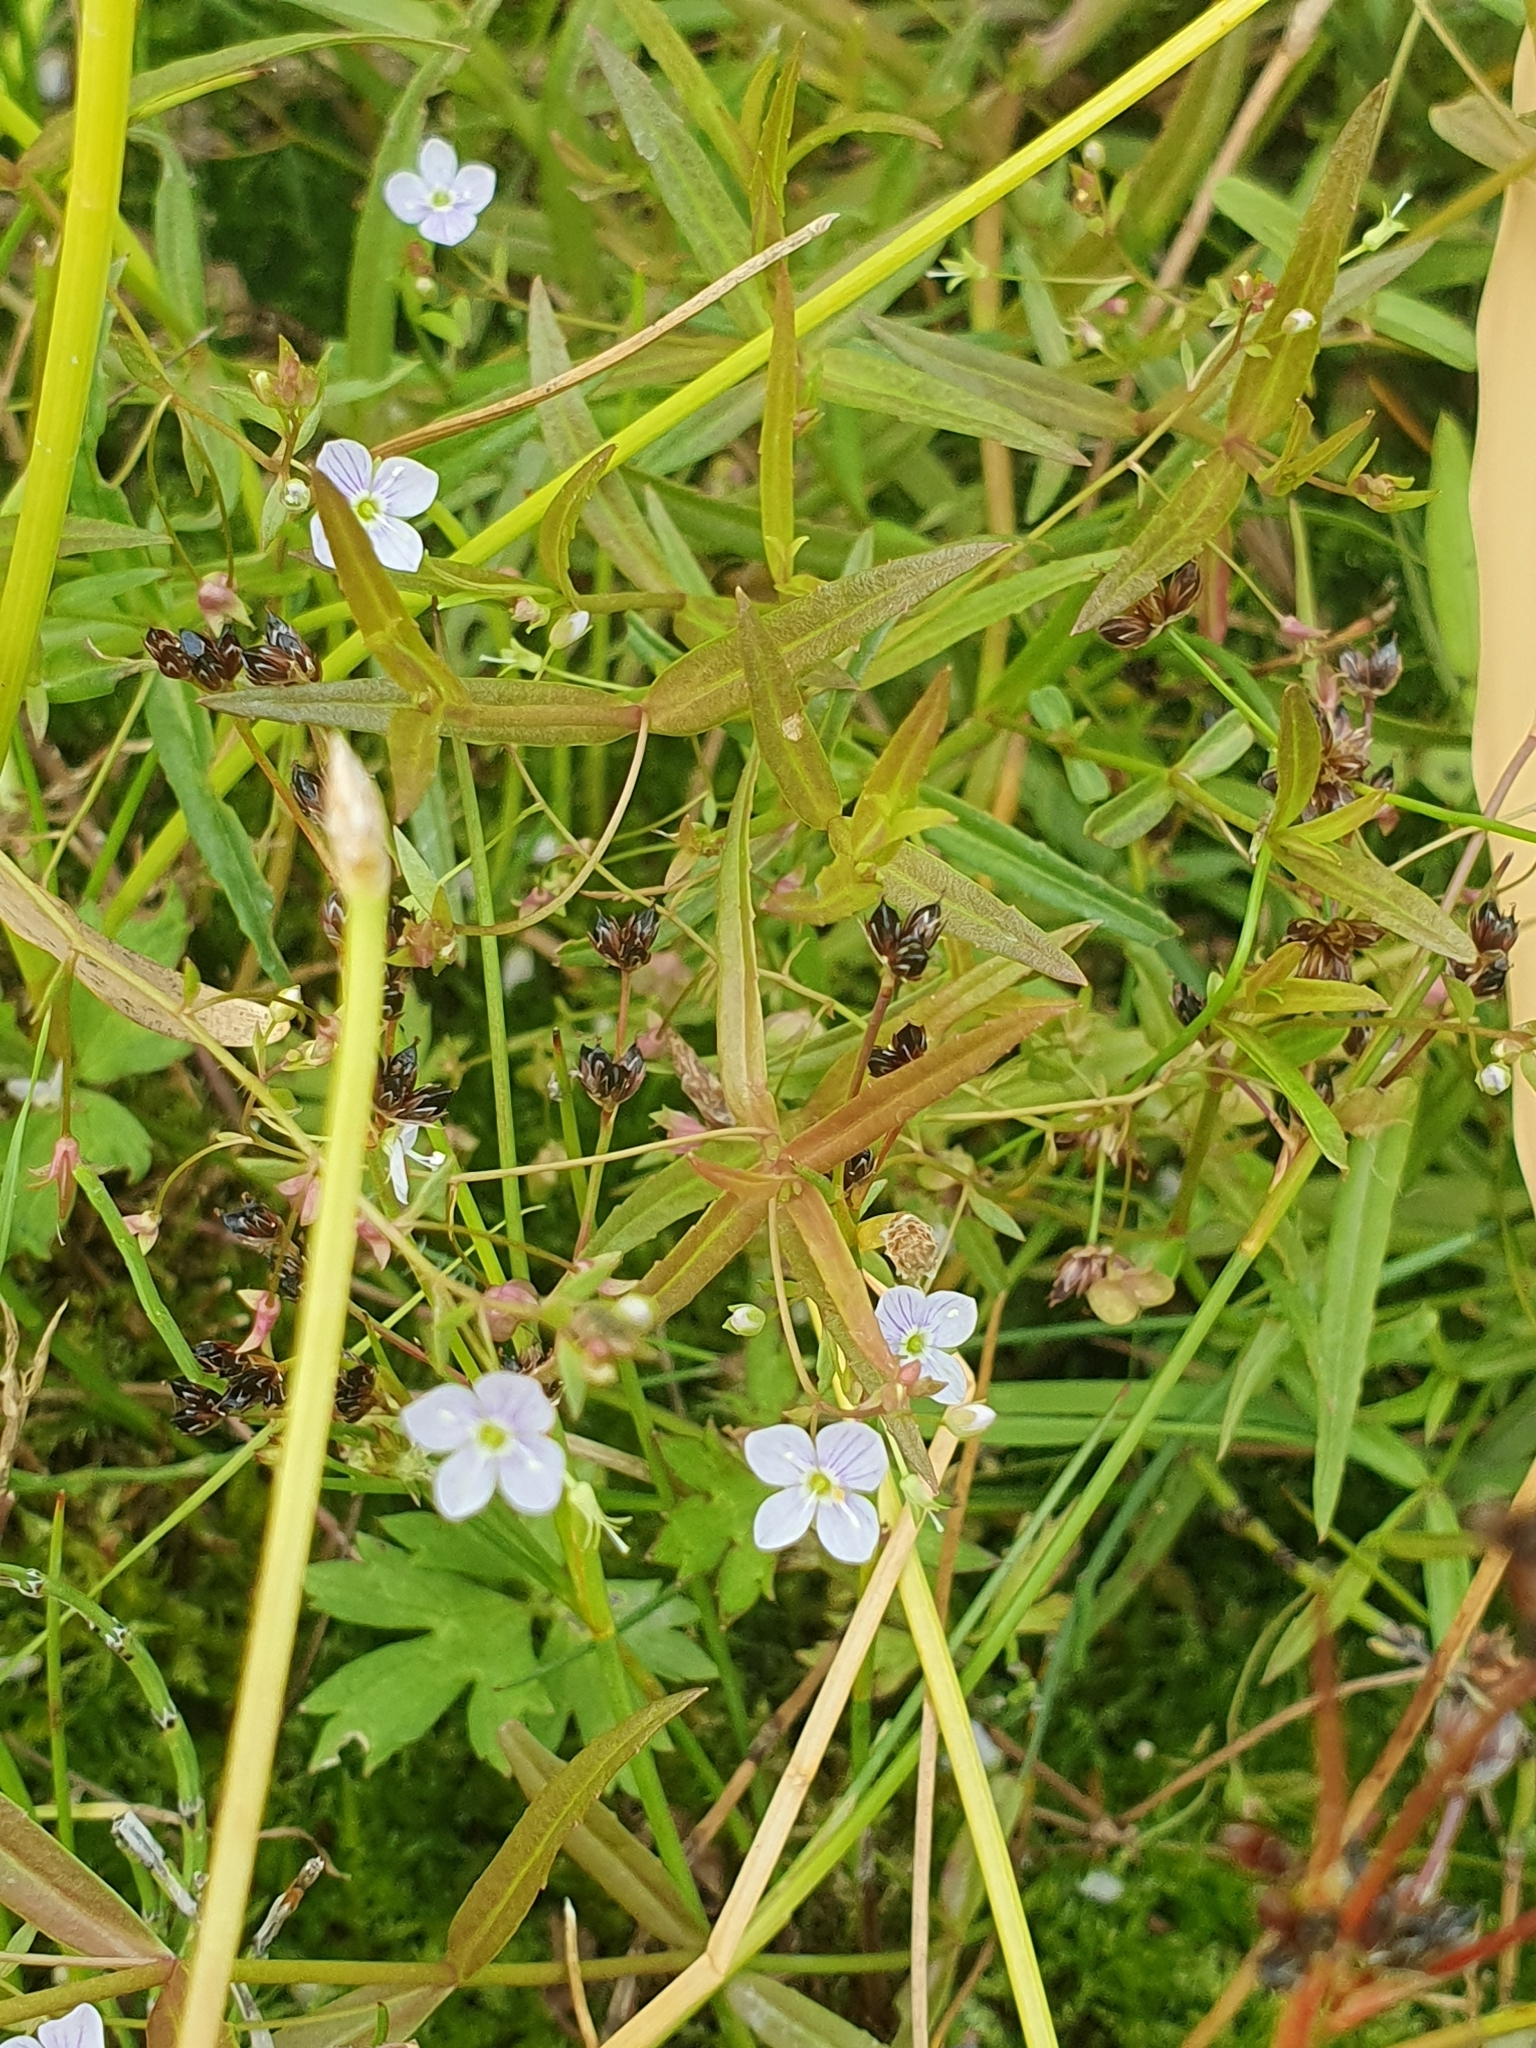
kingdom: Plantae
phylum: Tracheophyta
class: Magnoliopsida
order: Lamiales
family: Plantaginaceae
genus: Veronica
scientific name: Veronica scutellata
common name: Marsh speedwell
